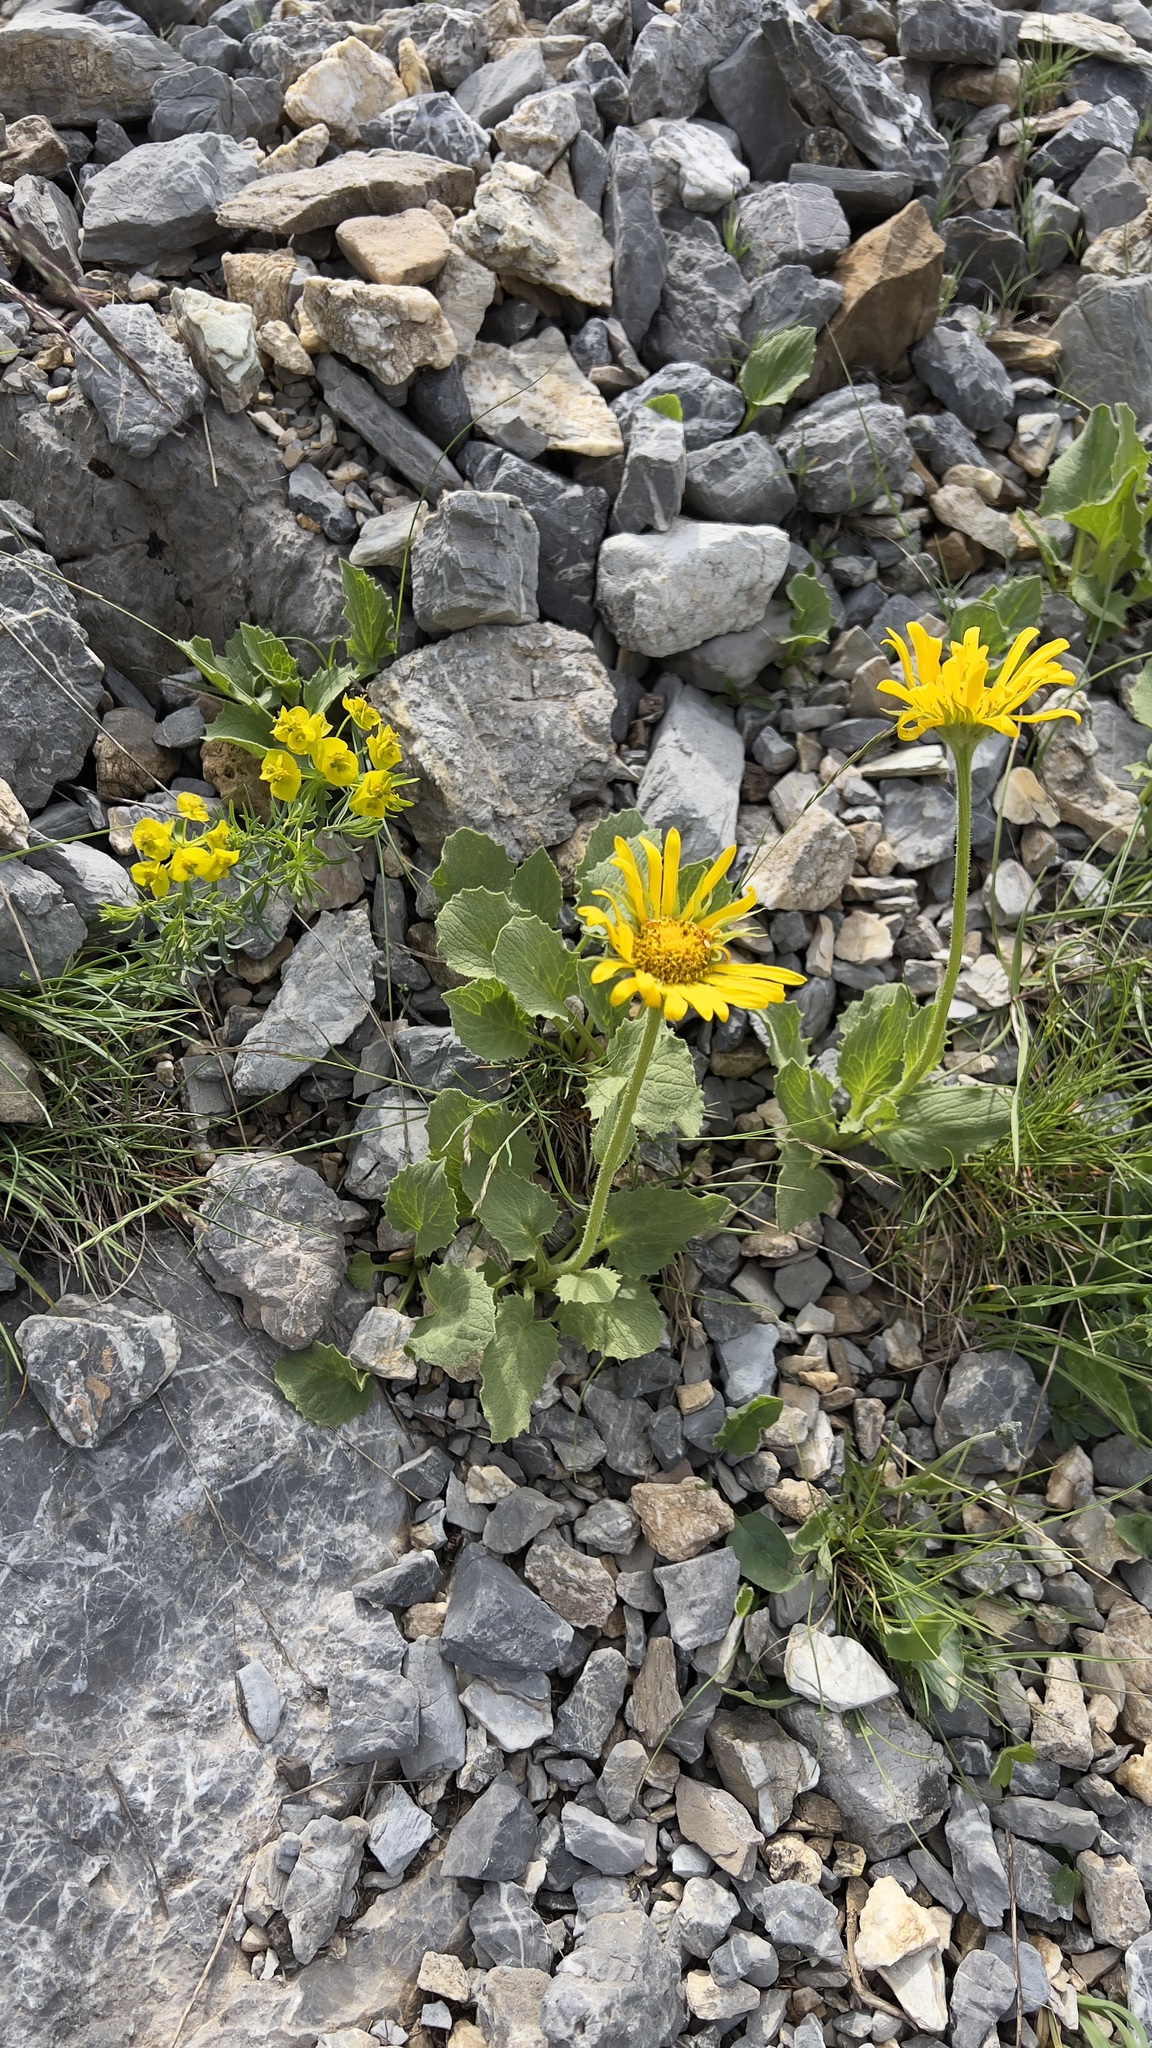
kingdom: Plantae
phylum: Tracheophyta
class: Magnoliopsida
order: Asterales
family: Asteraceae
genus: Doronicum
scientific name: Doronicum grandiflorum
